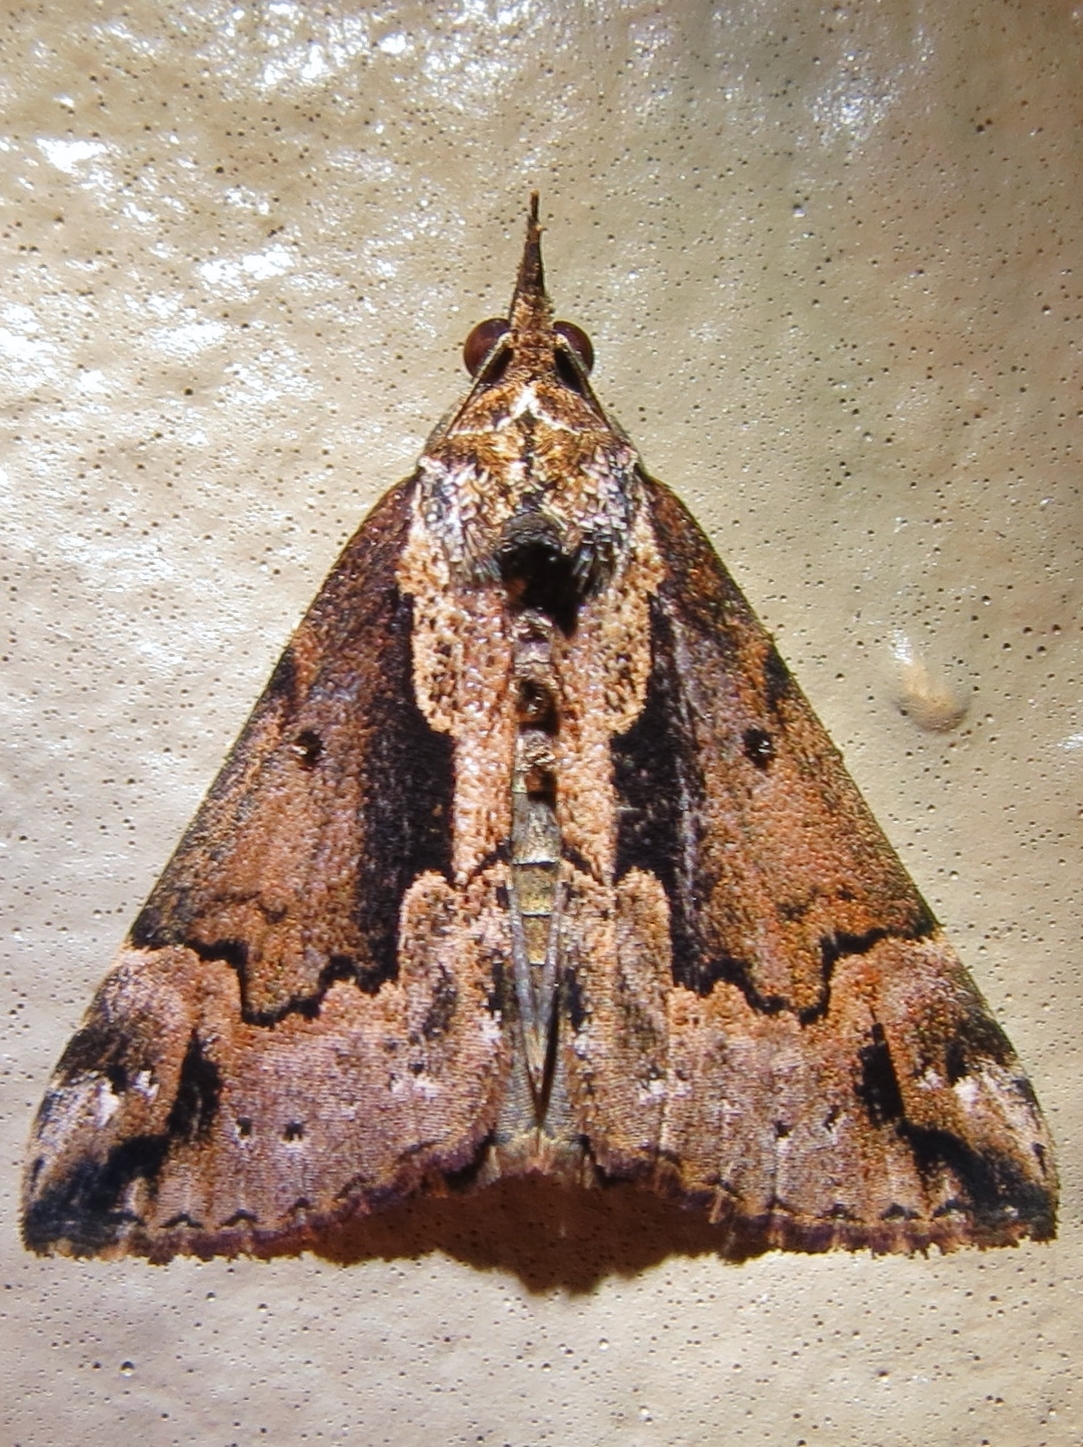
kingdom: Animalia
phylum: Arthropoda
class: Insecta
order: Lepidoptera
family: Erebidae
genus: Hypena
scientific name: Hypena baltimoralis
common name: Baltimore snout
